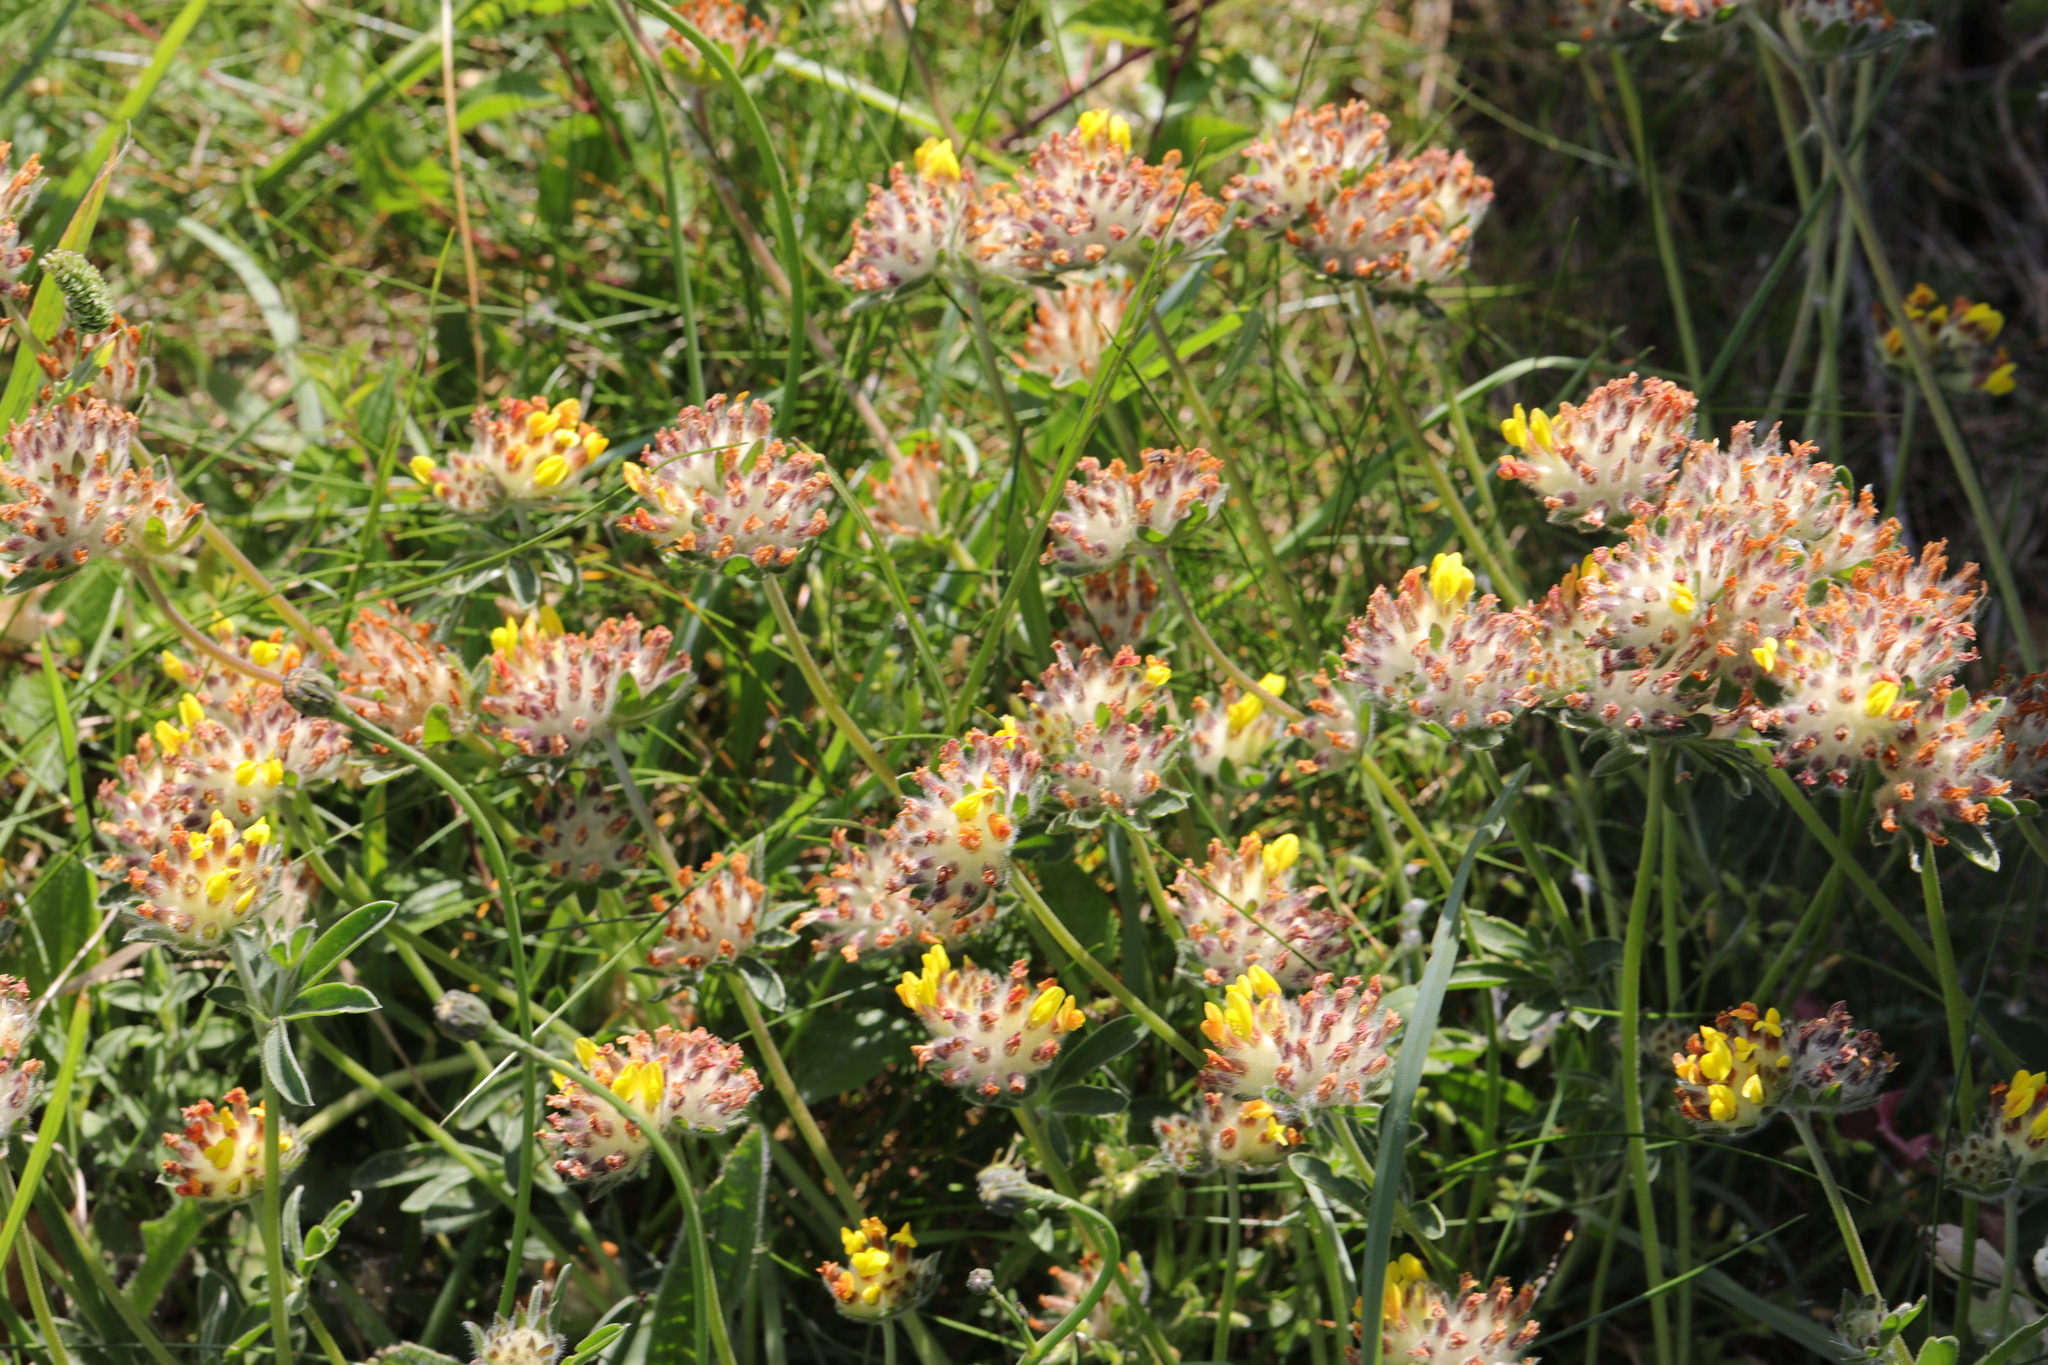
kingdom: Plantae
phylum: Tracheophyta
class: Magnoliopsida
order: Fabales
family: Fabaceae
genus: Anthyllis
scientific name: Anthyllis vulneraria
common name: Kidney vetch
